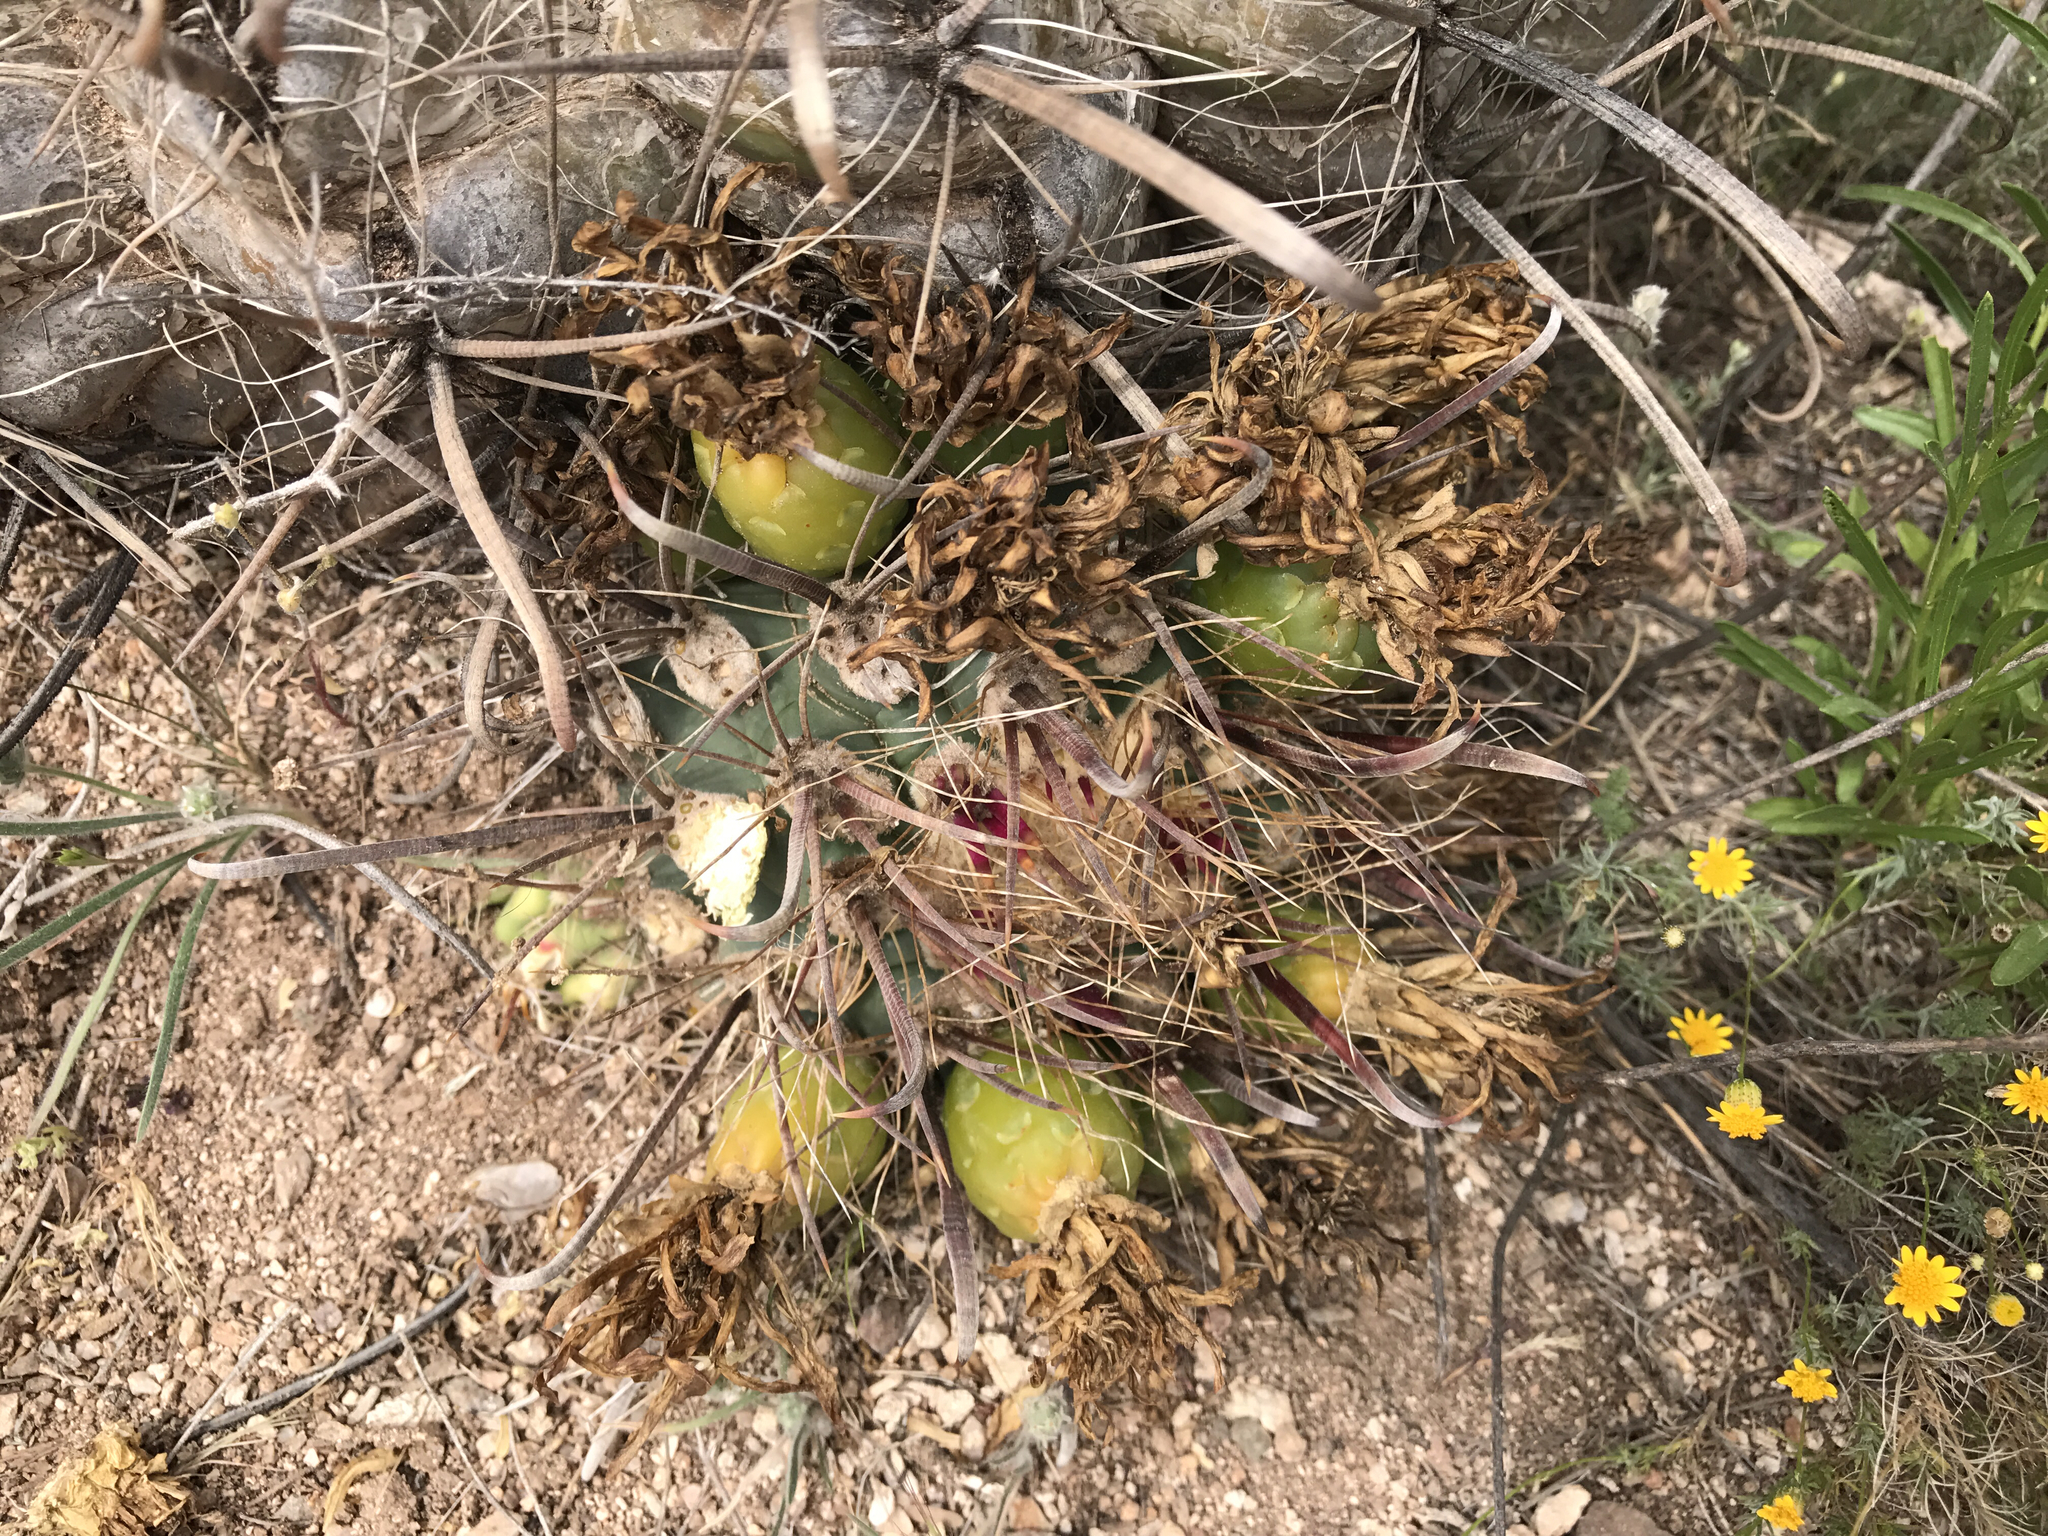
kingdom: Plantae
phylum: Tracheophyta
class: Magnoliopsida
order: Caryophyllales
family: Cactaceae
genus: Ferocactus
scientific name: Ferocactus wislizeni
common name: Candy barrel cactus
